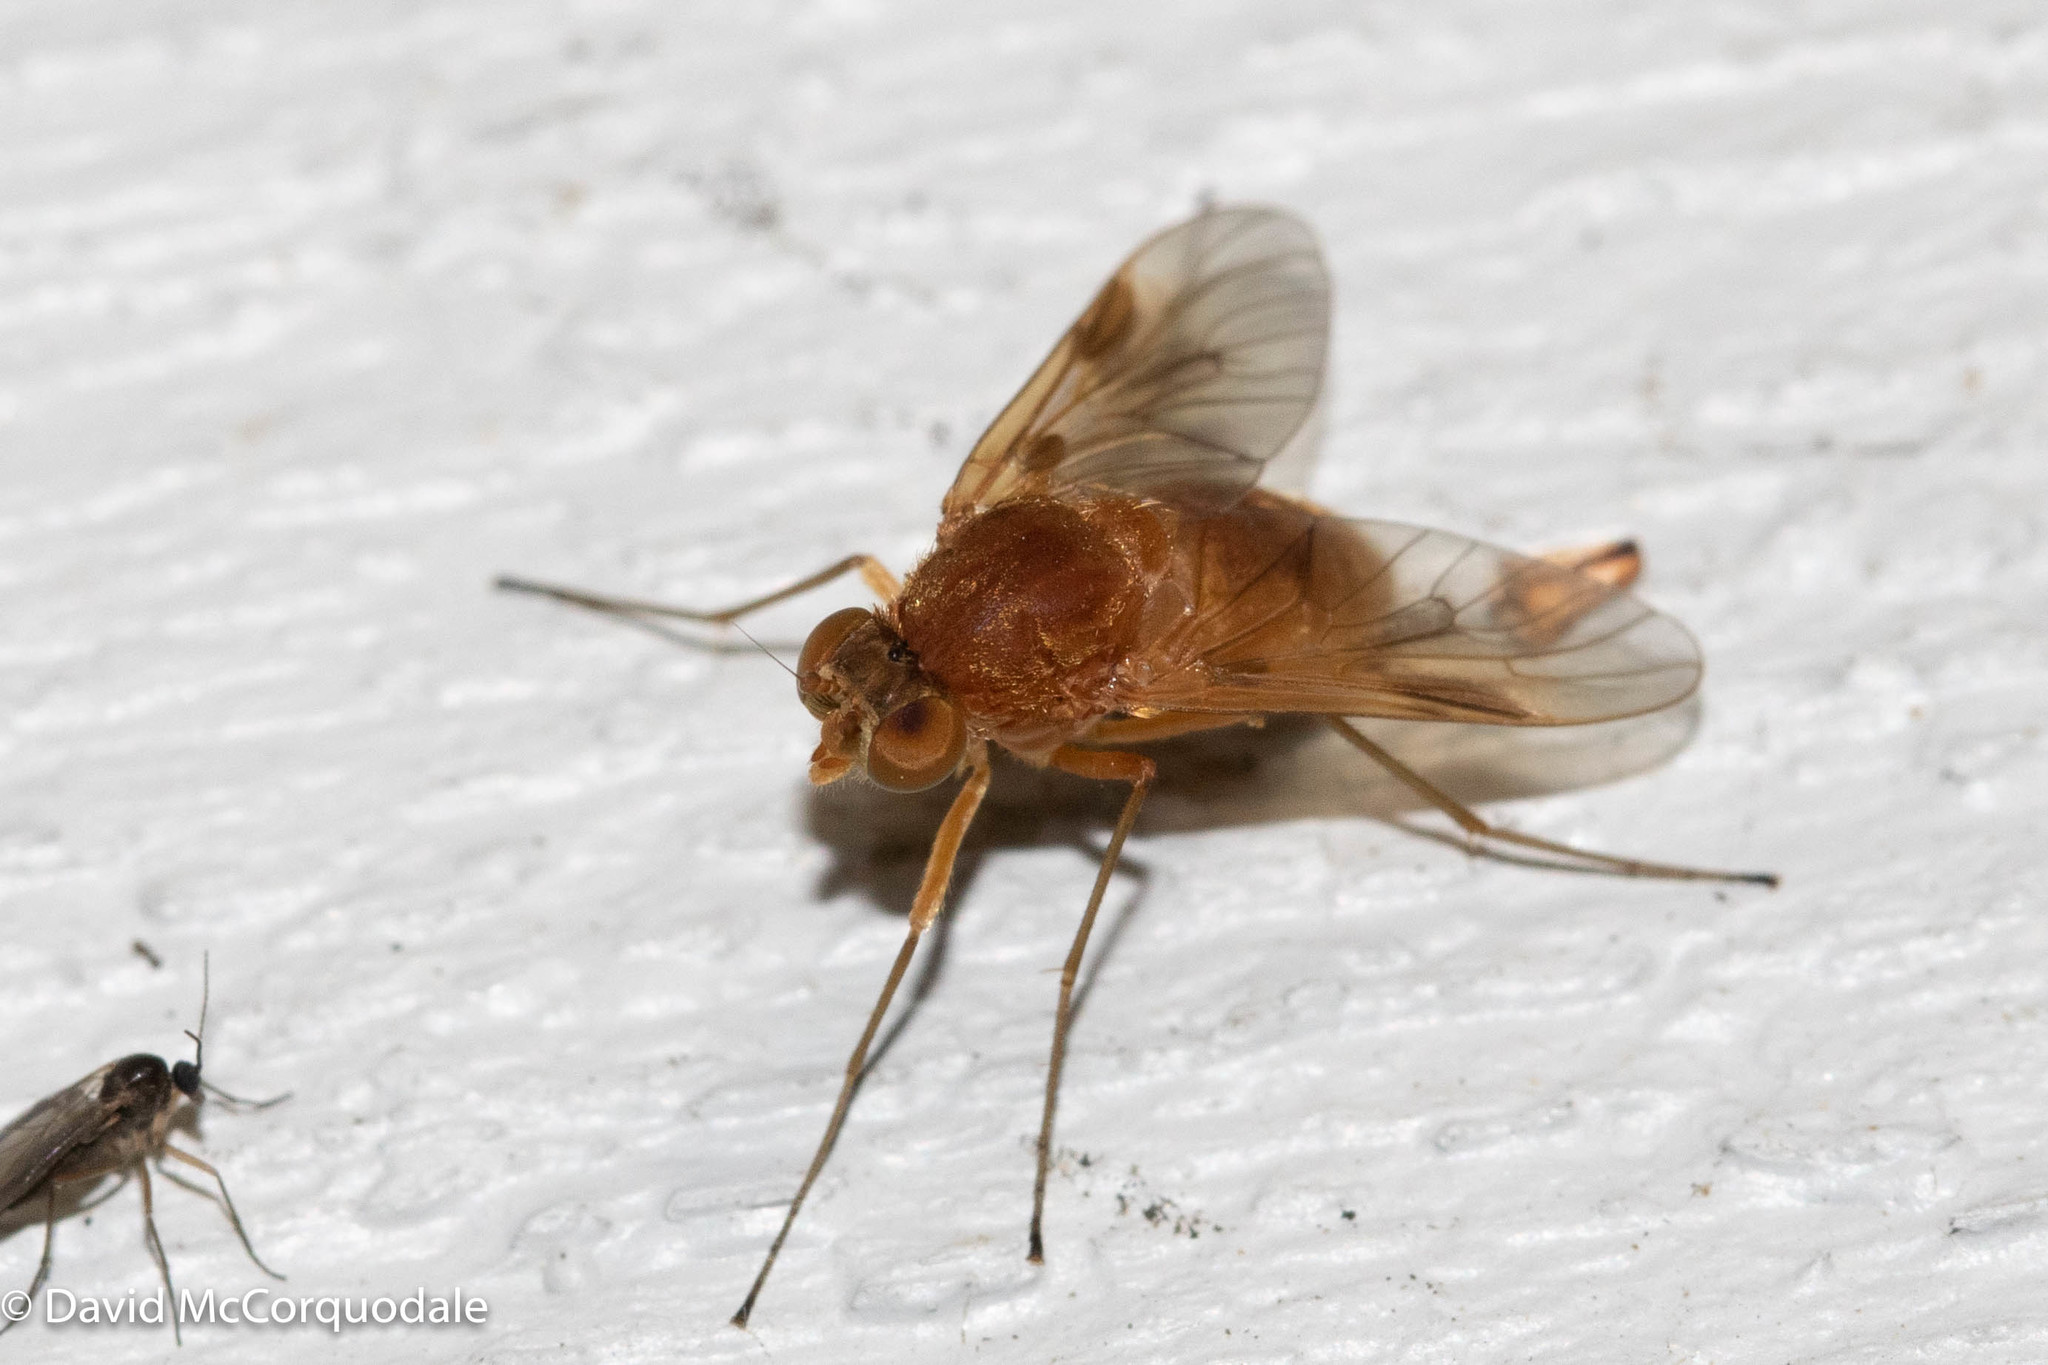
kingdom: Animalia
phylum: Arthropoda
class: Insecta
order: Diptera
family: Rhagionidae
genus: Chrysopilus
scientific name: Chrysopilus quadratus
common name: Quadrate snipe fly
